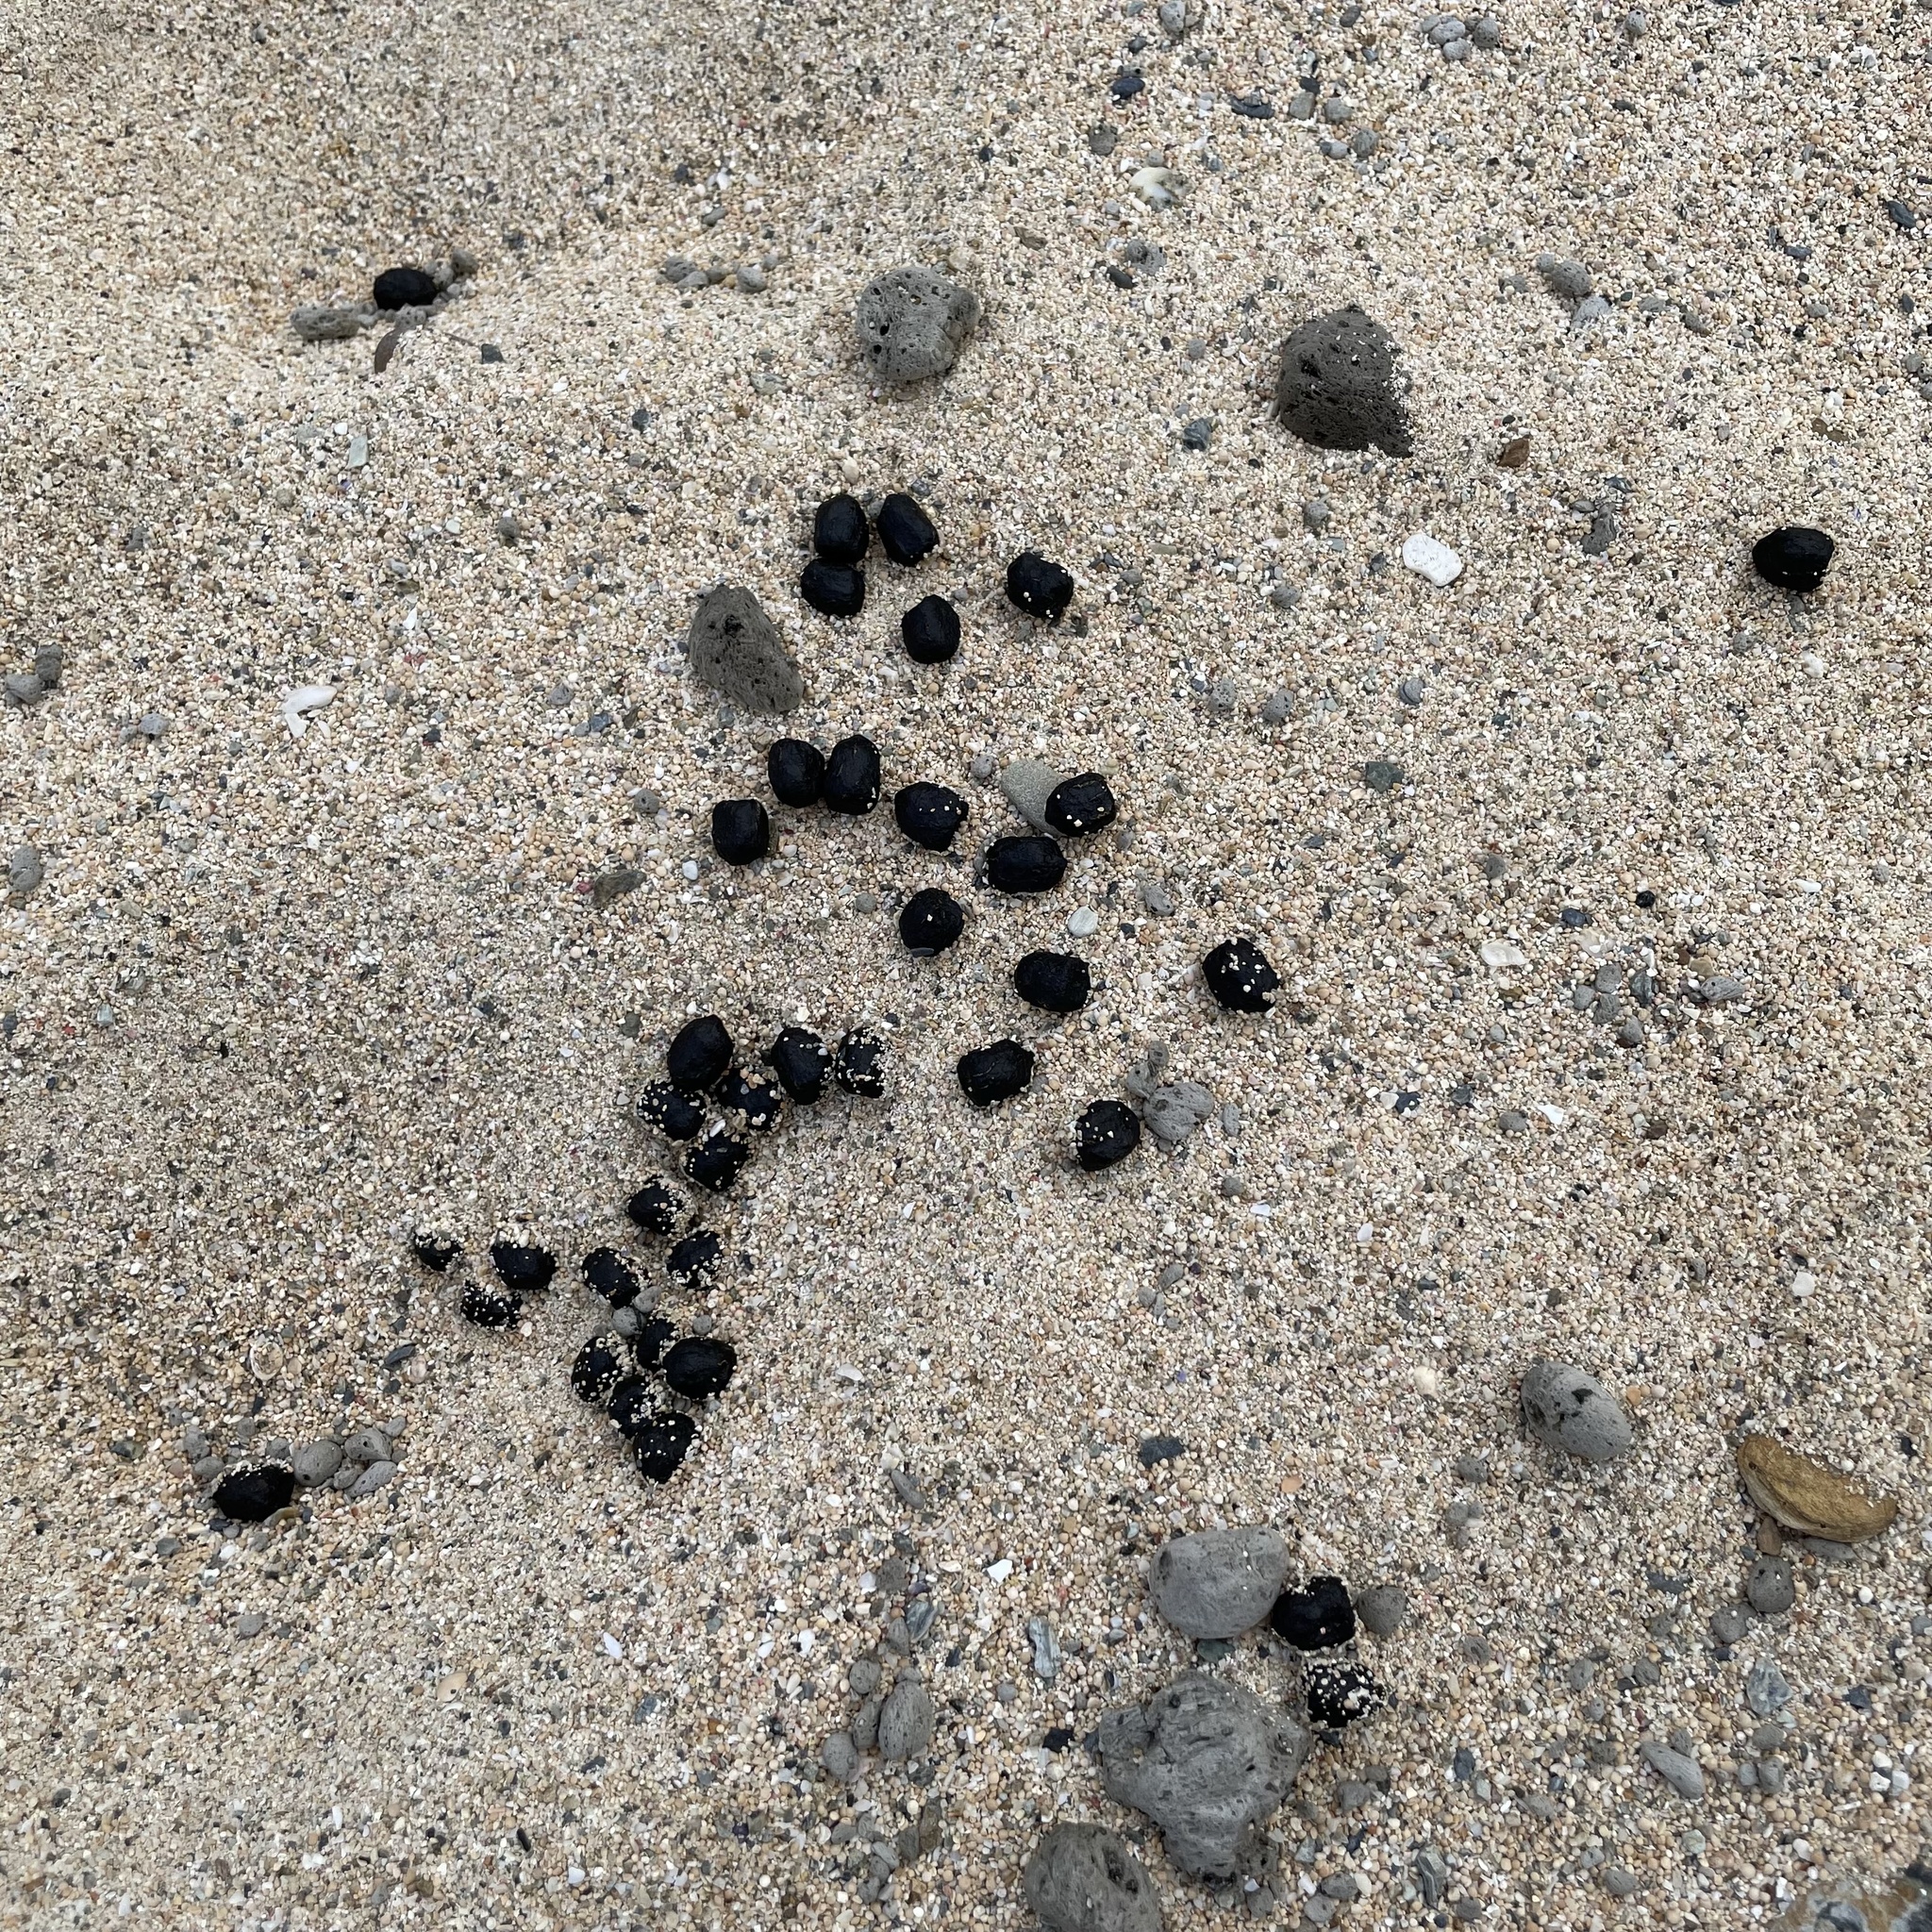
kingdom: Animalia
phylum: Chordata
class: Mammalia
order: Artiodactyla
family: Bovidae
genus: Capra
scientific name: Capra hircus
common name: Domestic goat
